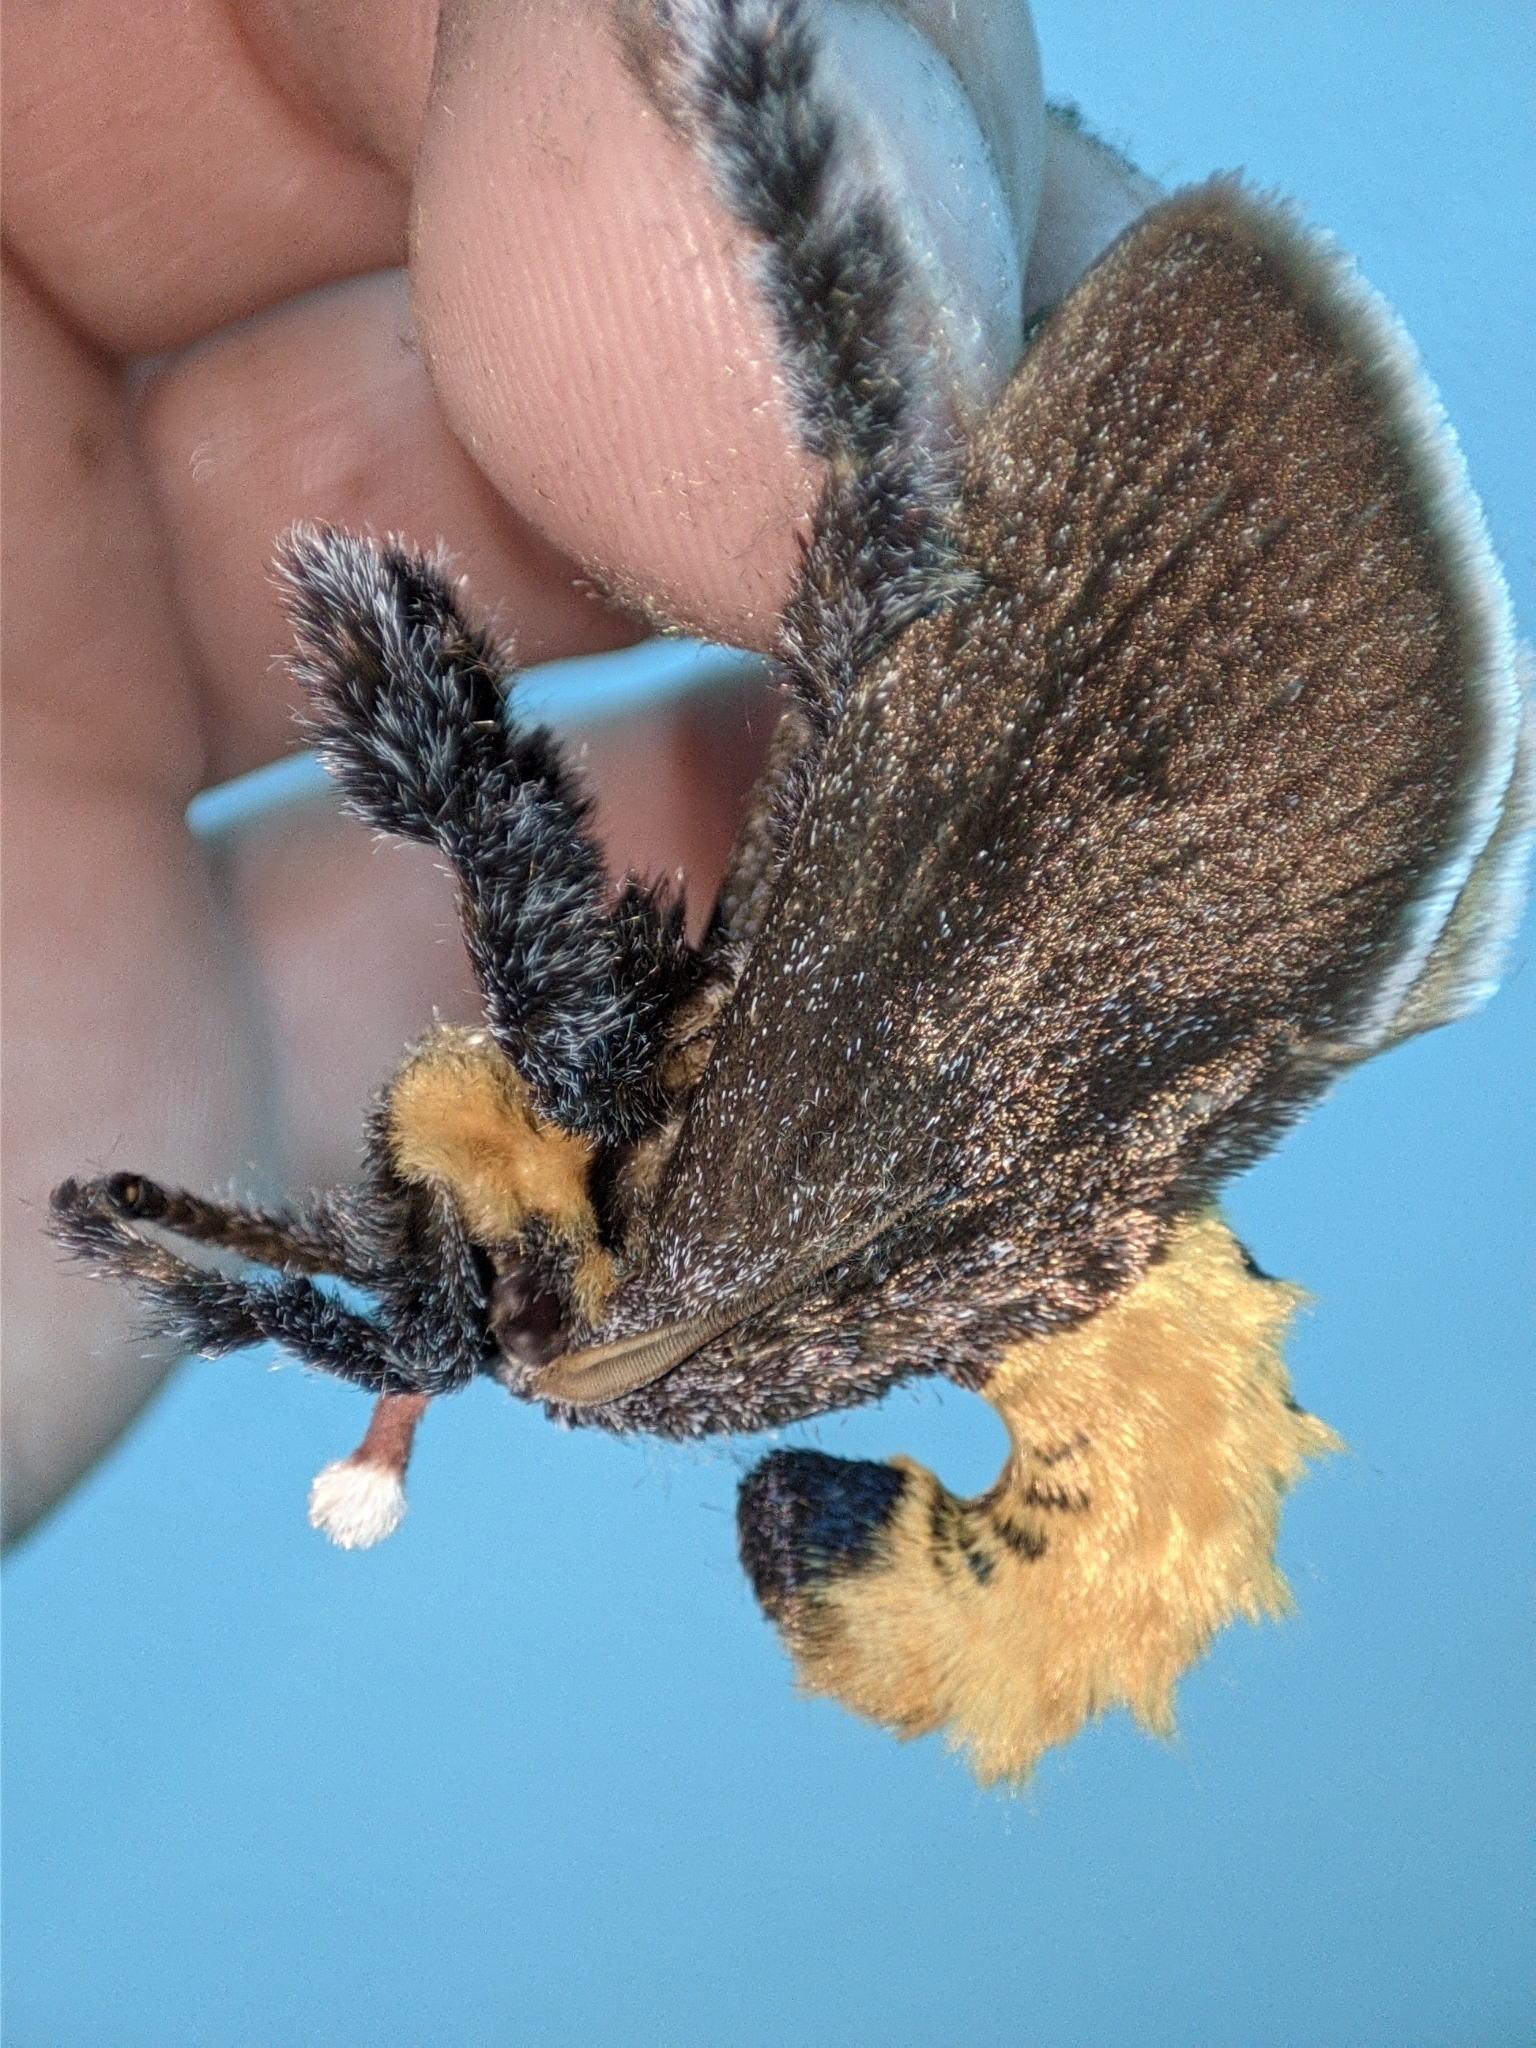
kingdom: Animalia
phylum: Arthropoda
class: Insecta
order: Lepidoptera
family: Limacodidae
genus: Scopelodes
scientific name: Scopelodes kwangtungensis
